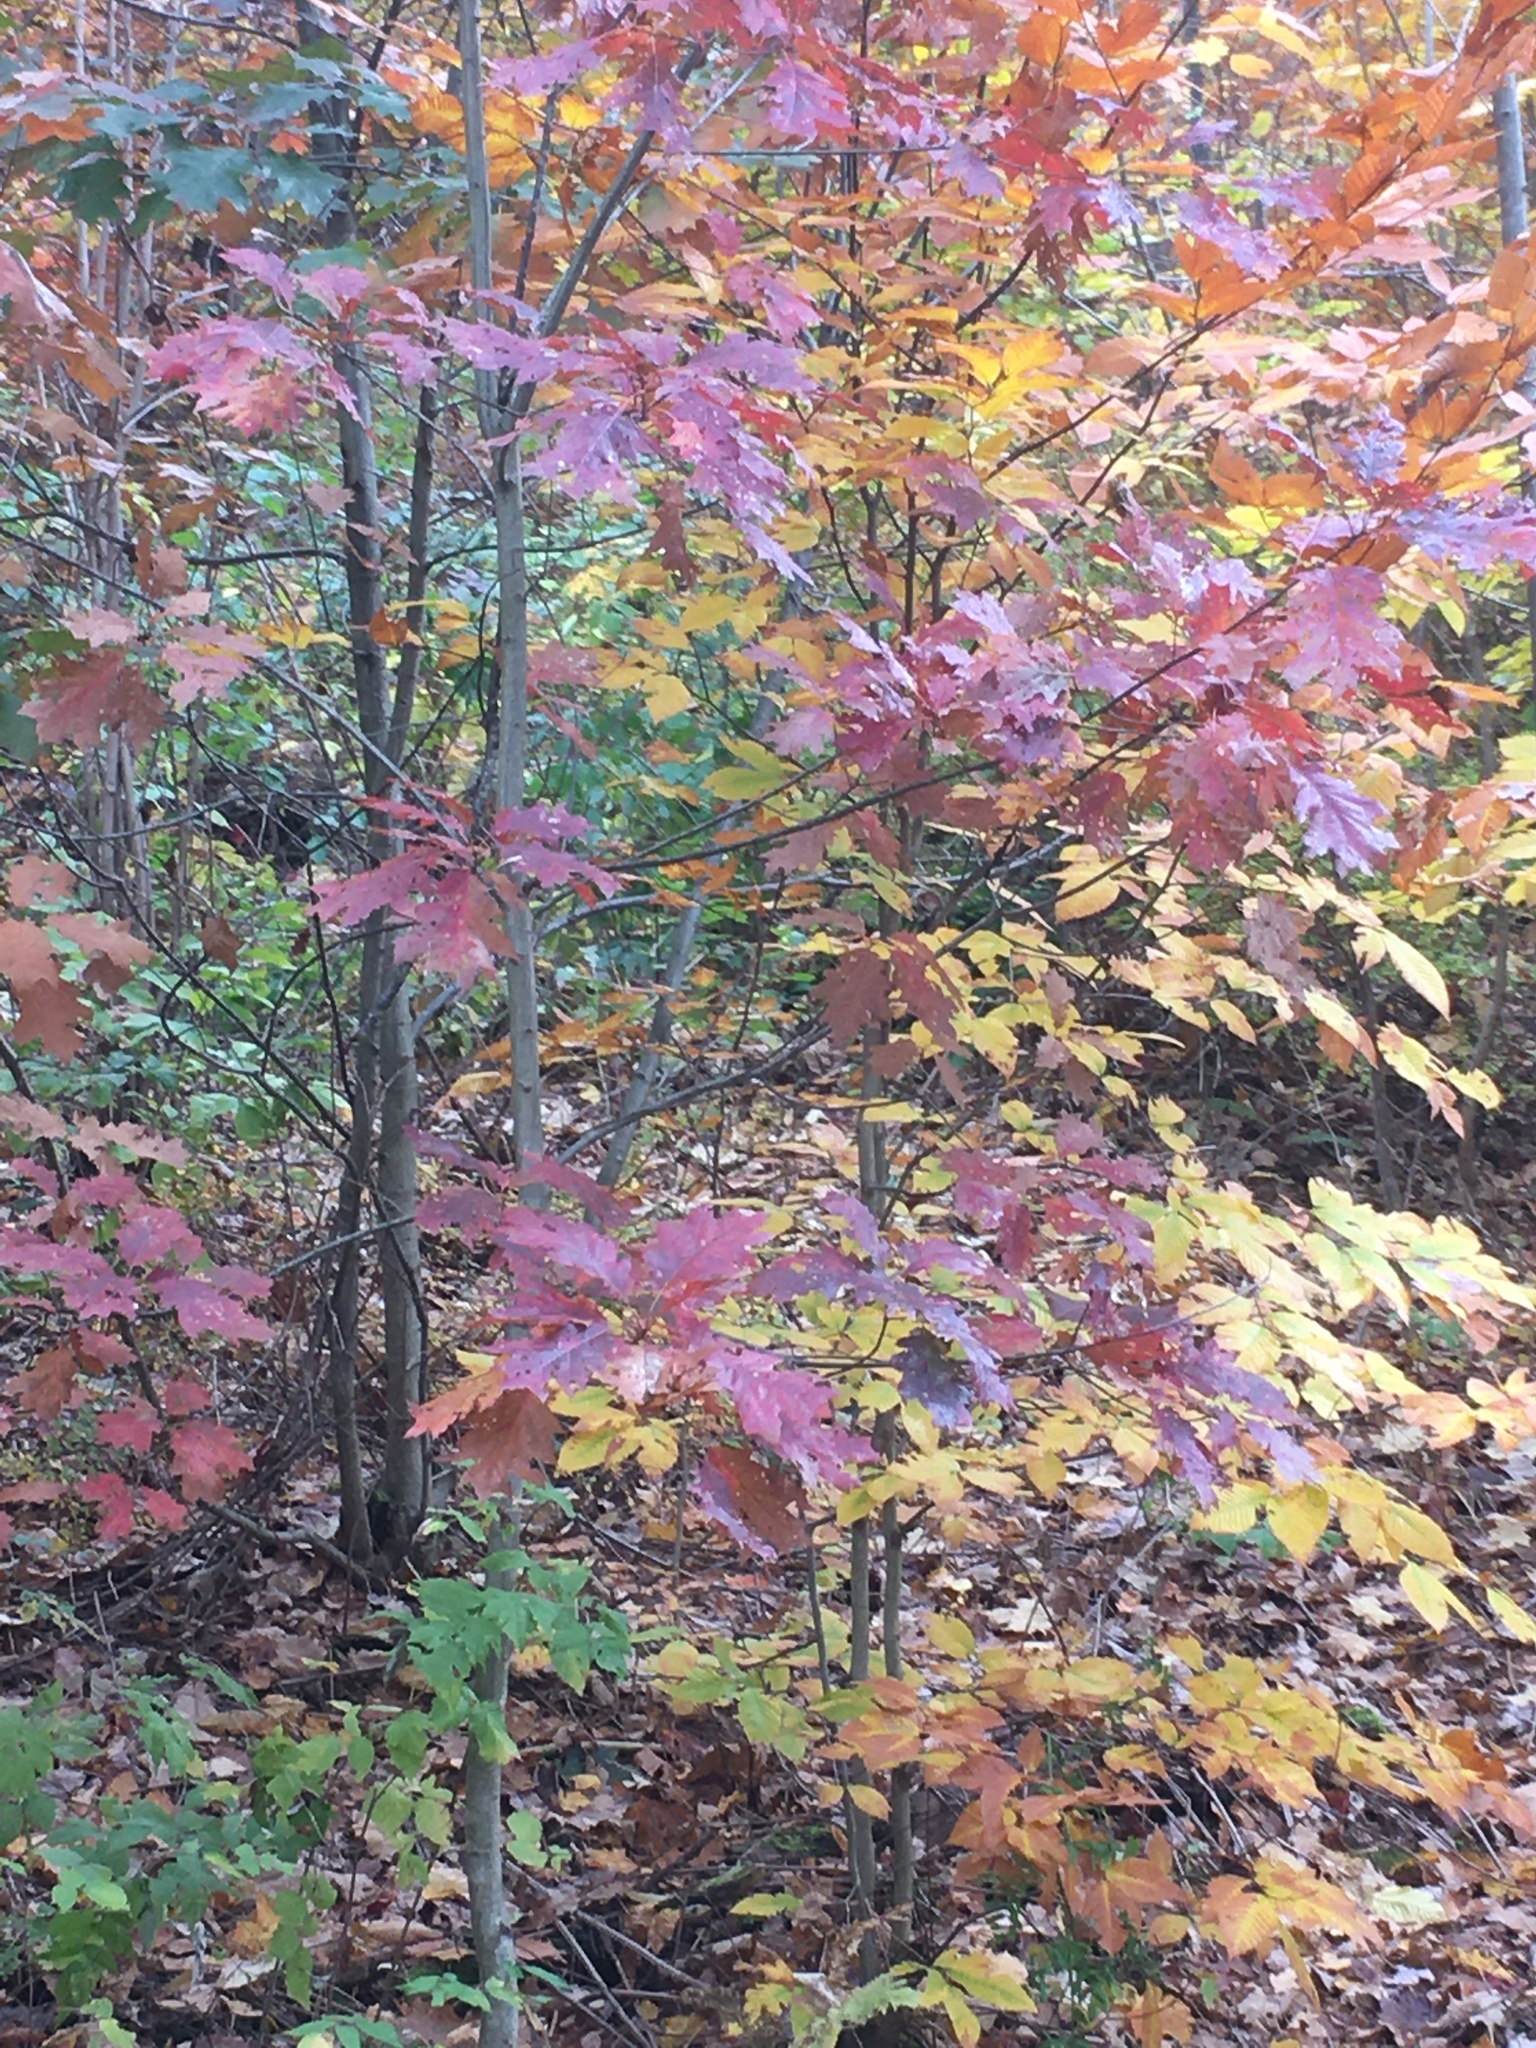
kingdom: Plantae
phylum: Tracheophyta
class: Magnoliopsida
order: Fagales
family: Fagaceae
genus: Quercus
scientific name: Quercus rubra
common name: Red oak
